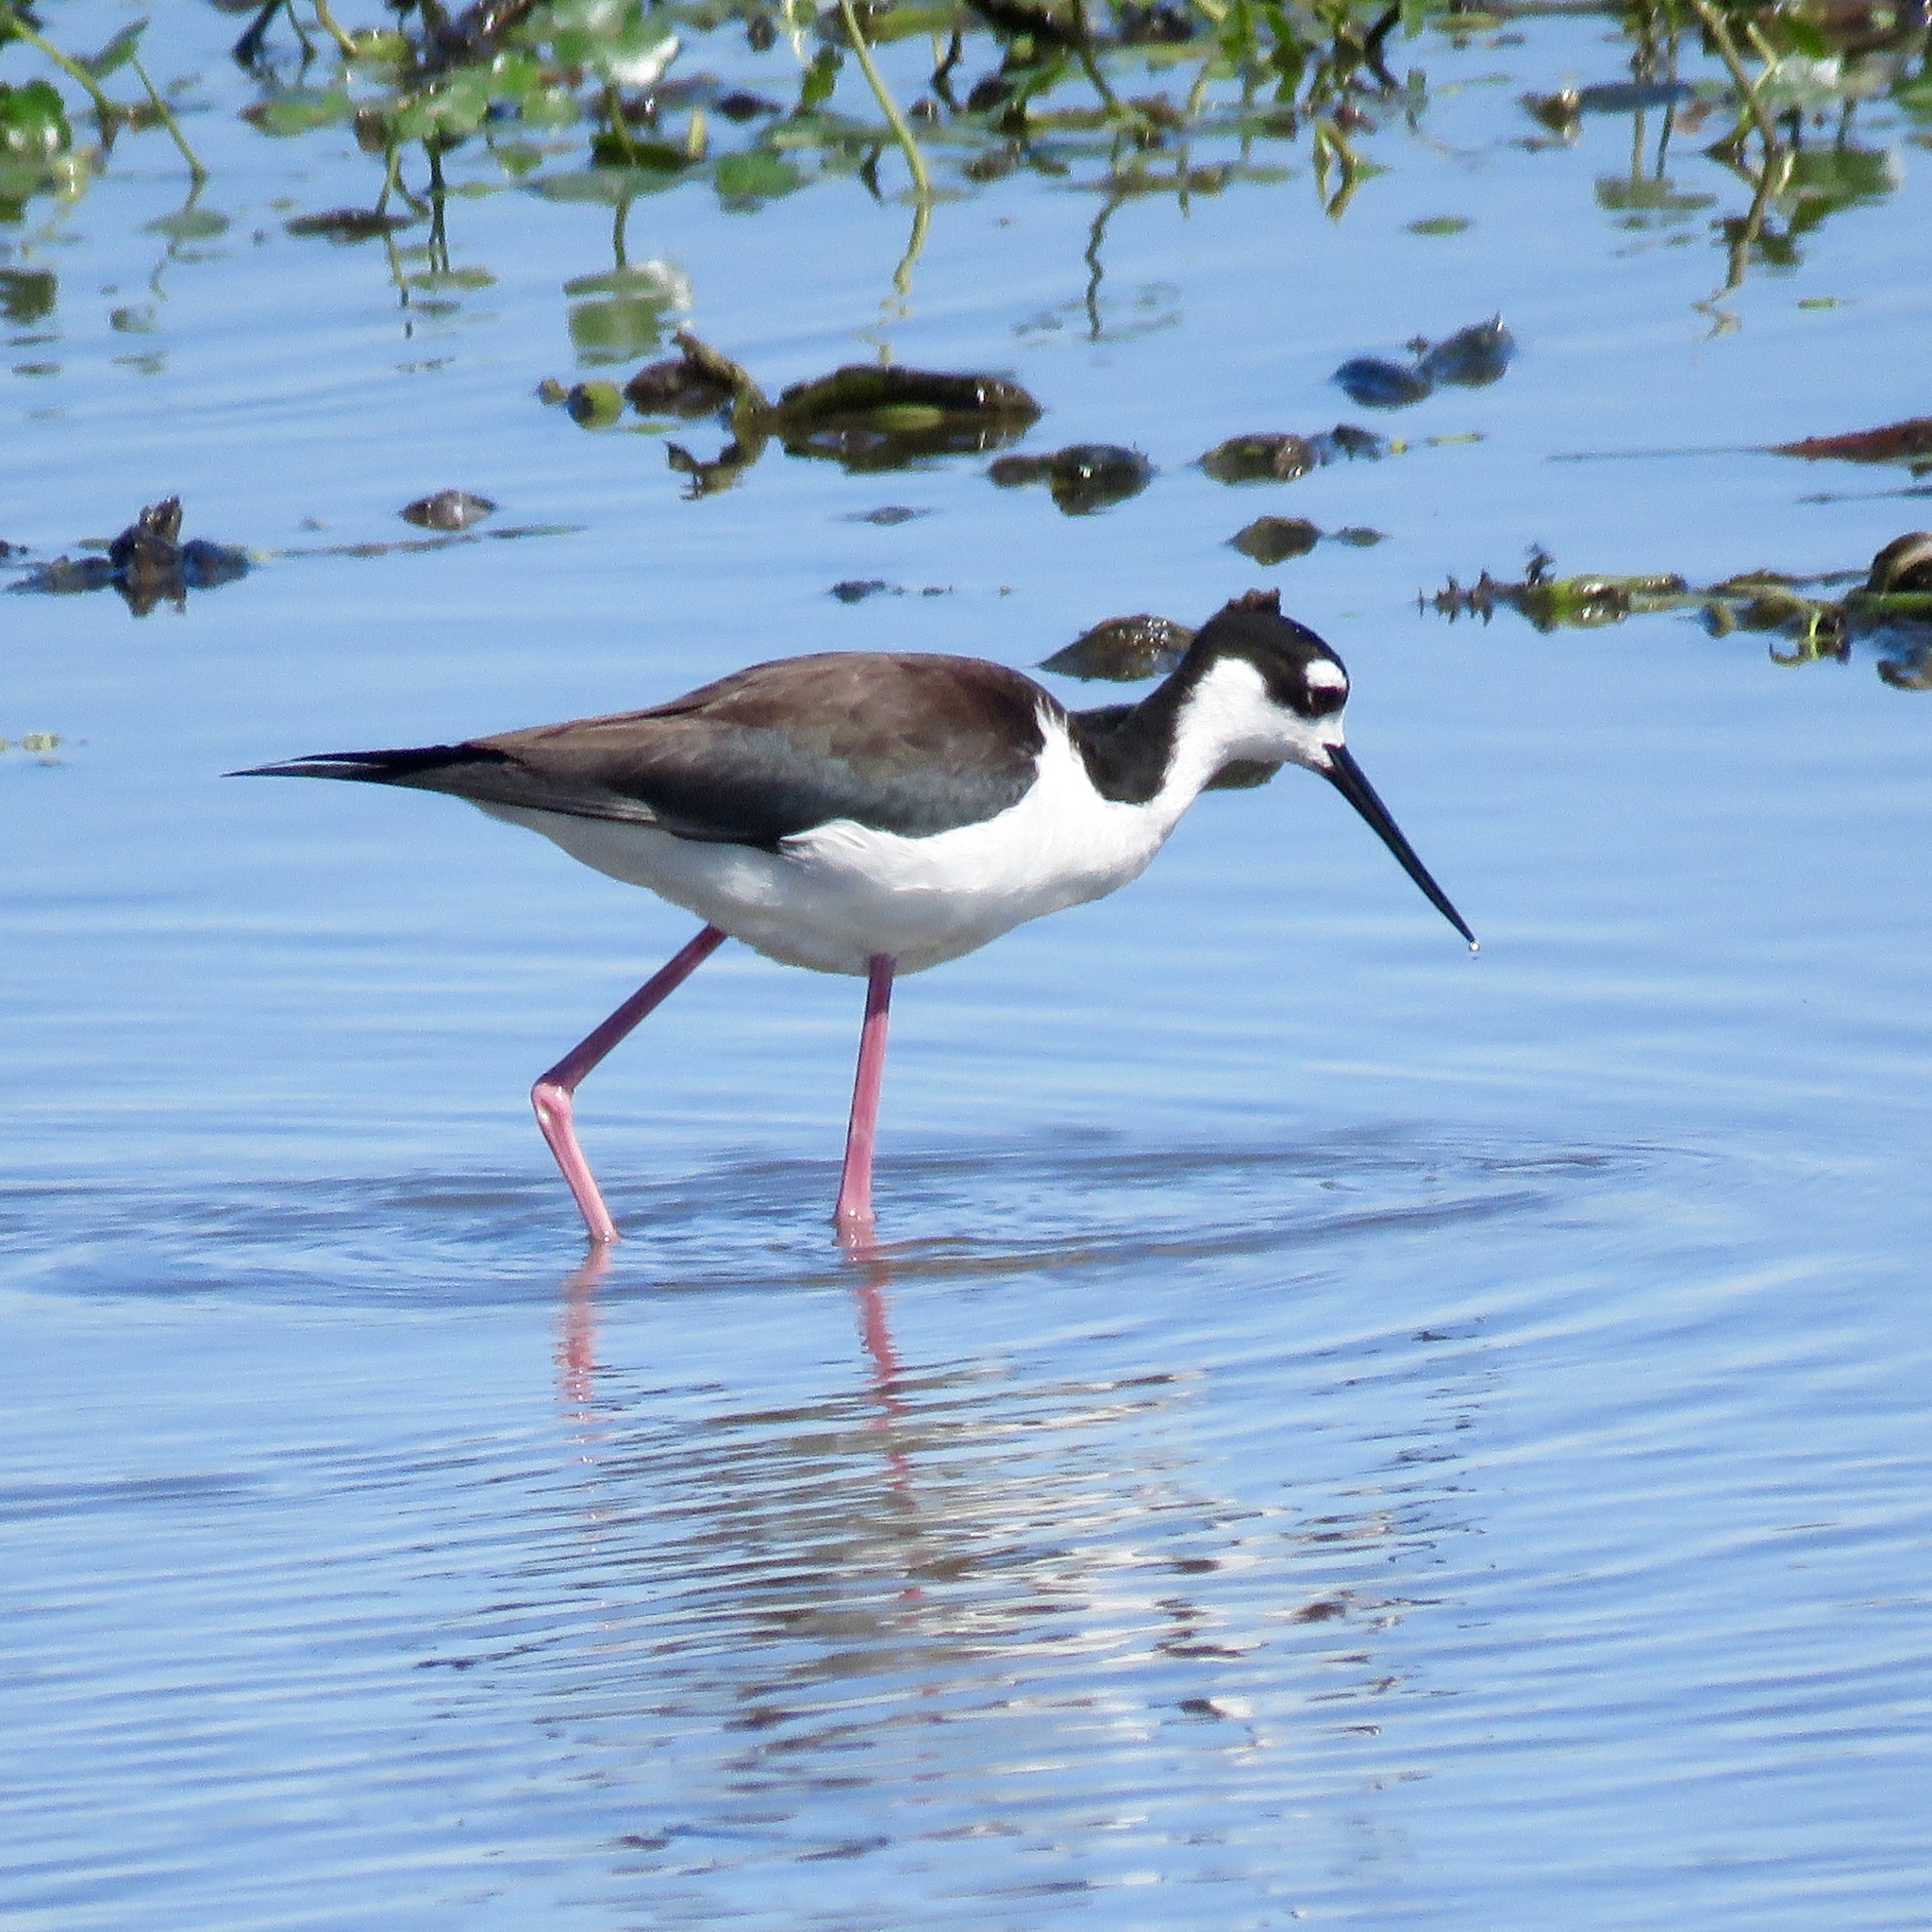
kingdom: Animalia
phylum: Chordata
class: Aves
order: Charadriiformes
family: Recurvirostridae
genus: Himantopus
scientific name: Himantopus mexicanus
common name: Black-necked stilt
